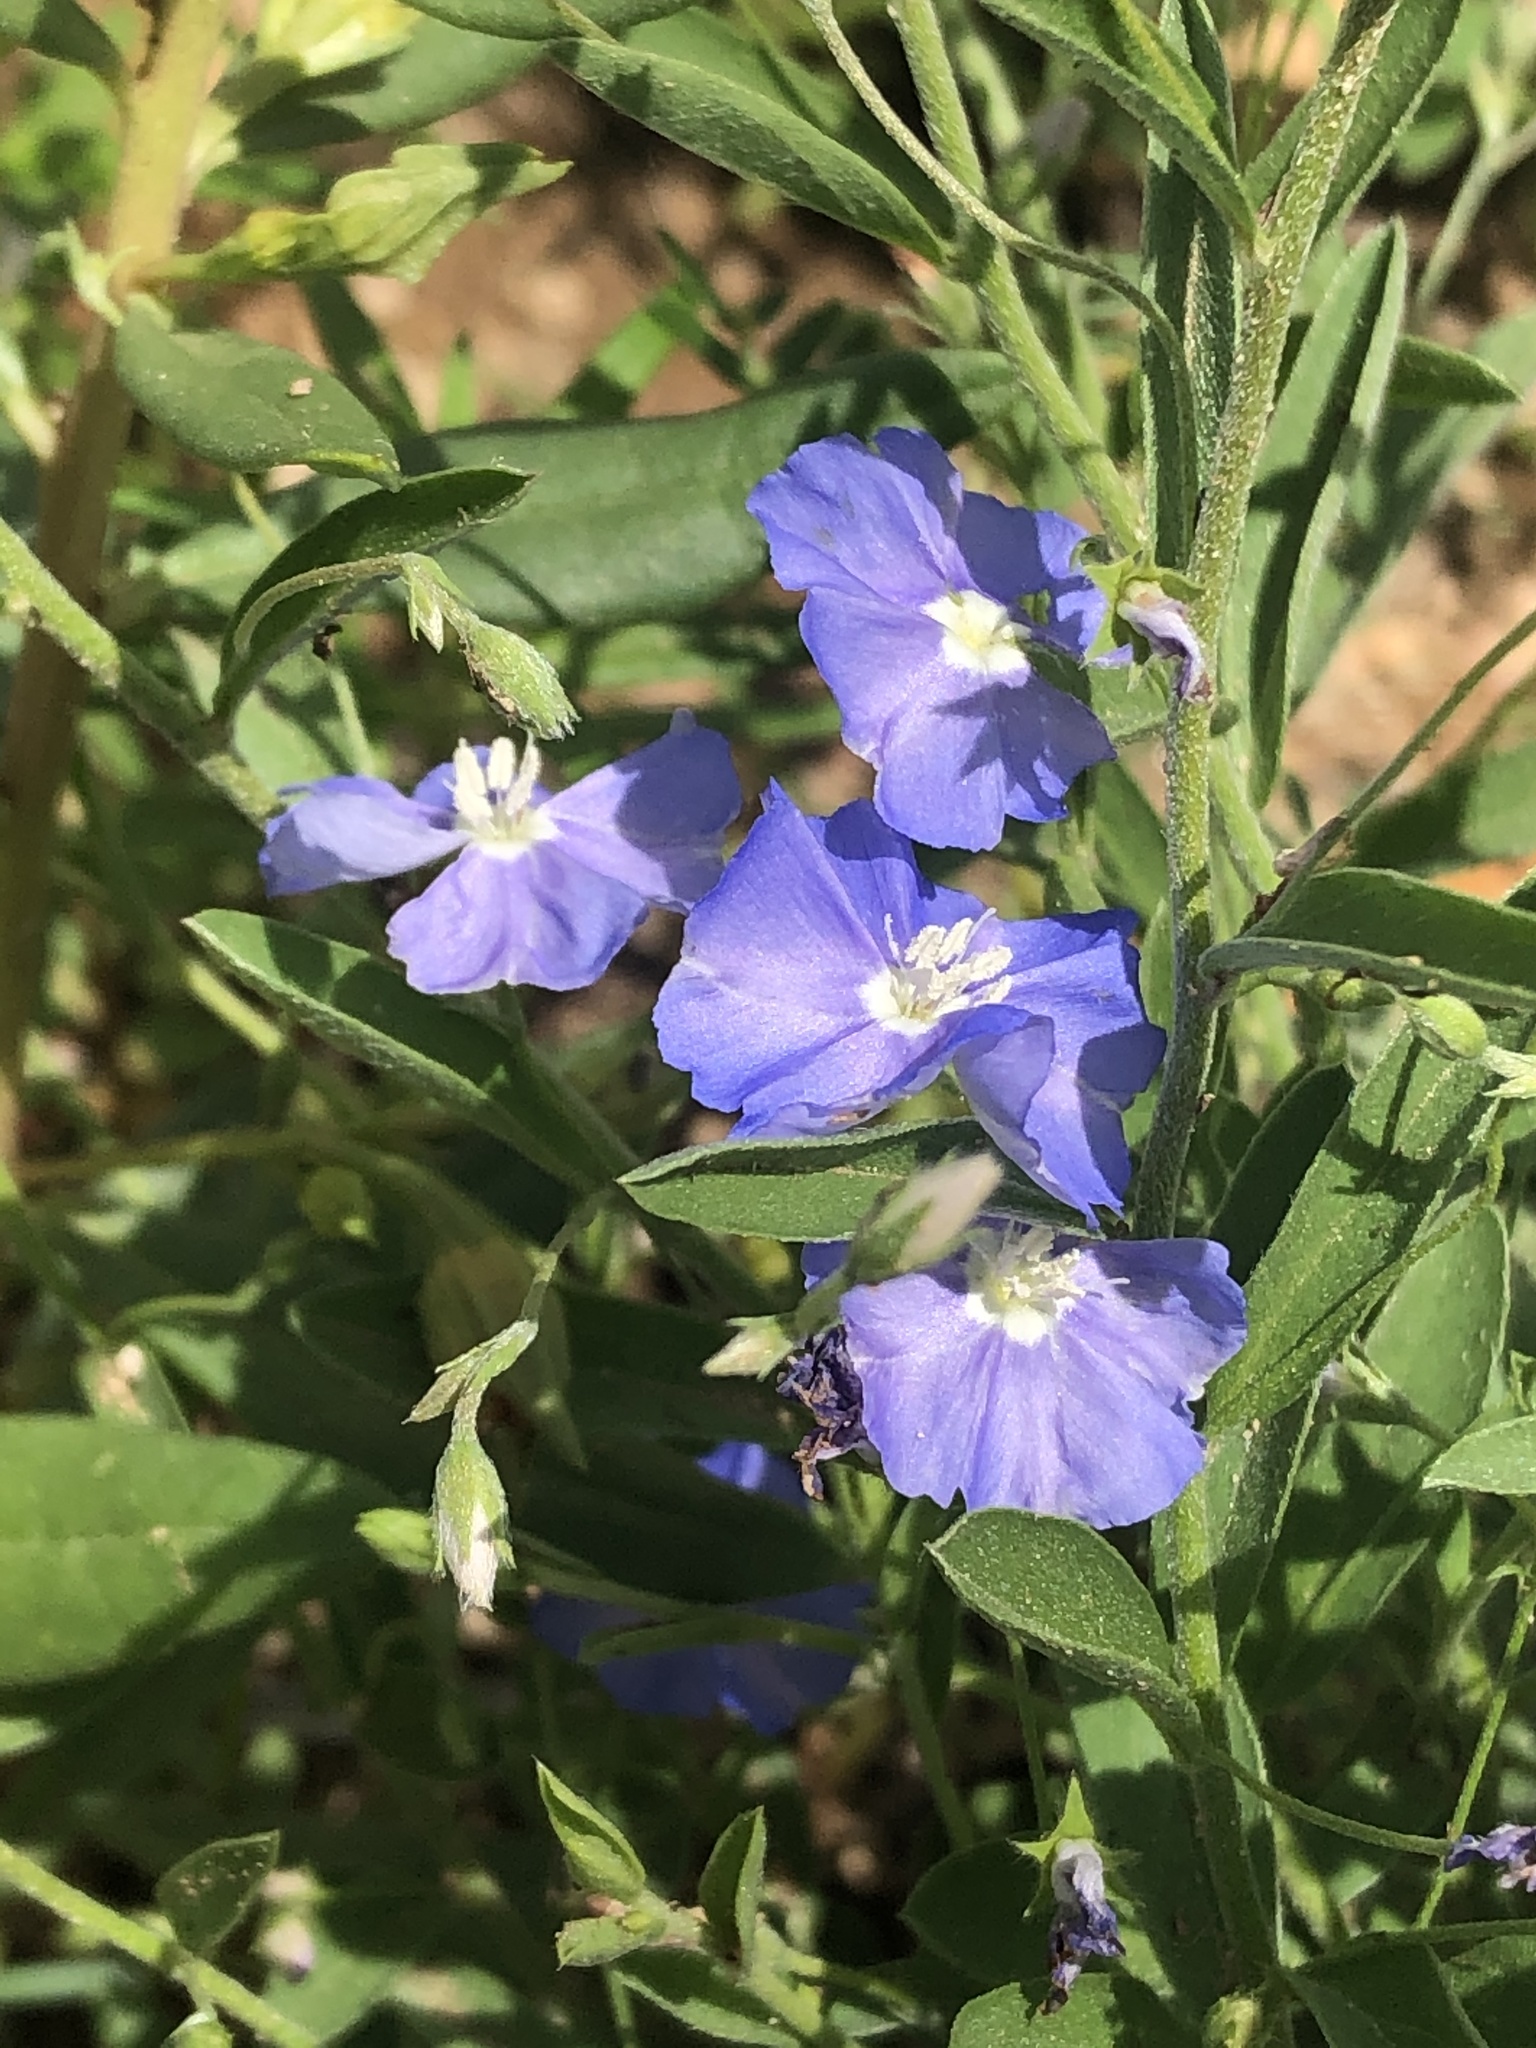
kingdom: Plantae
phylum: Tracheophyta
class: Magnoliopsida
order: Solanales
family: Convolvulaceae
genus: Evolvulus
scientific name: Evolvulus arizonicus
